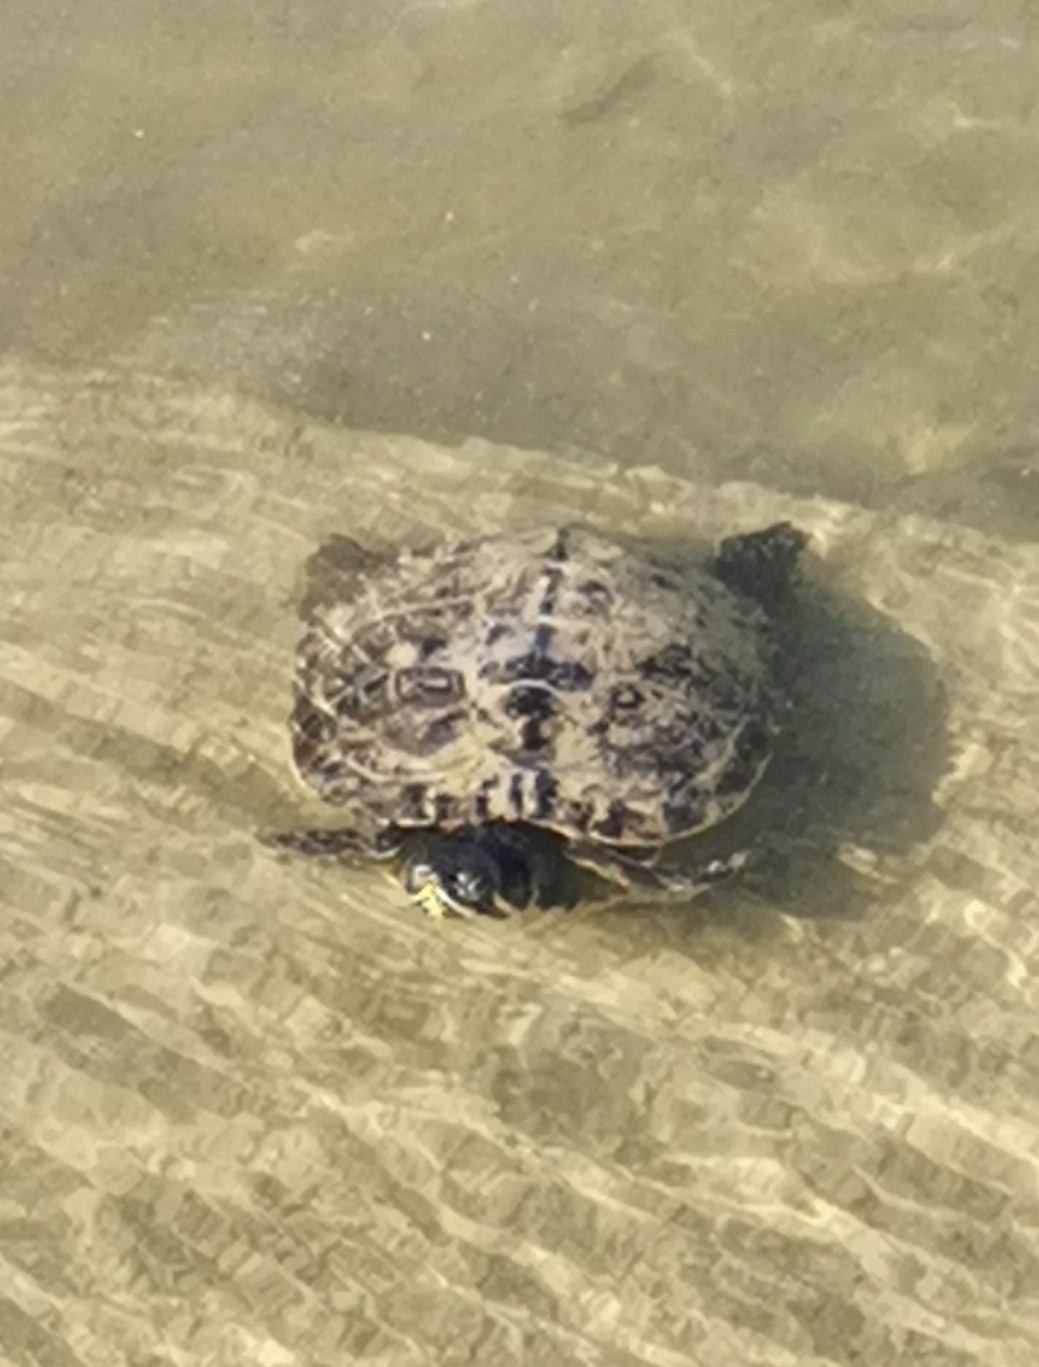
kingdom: Animalia
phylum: Chordata
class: Testudines
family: Emydidae
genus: Trachemys
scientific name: Trachemys scripta
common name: Slider
